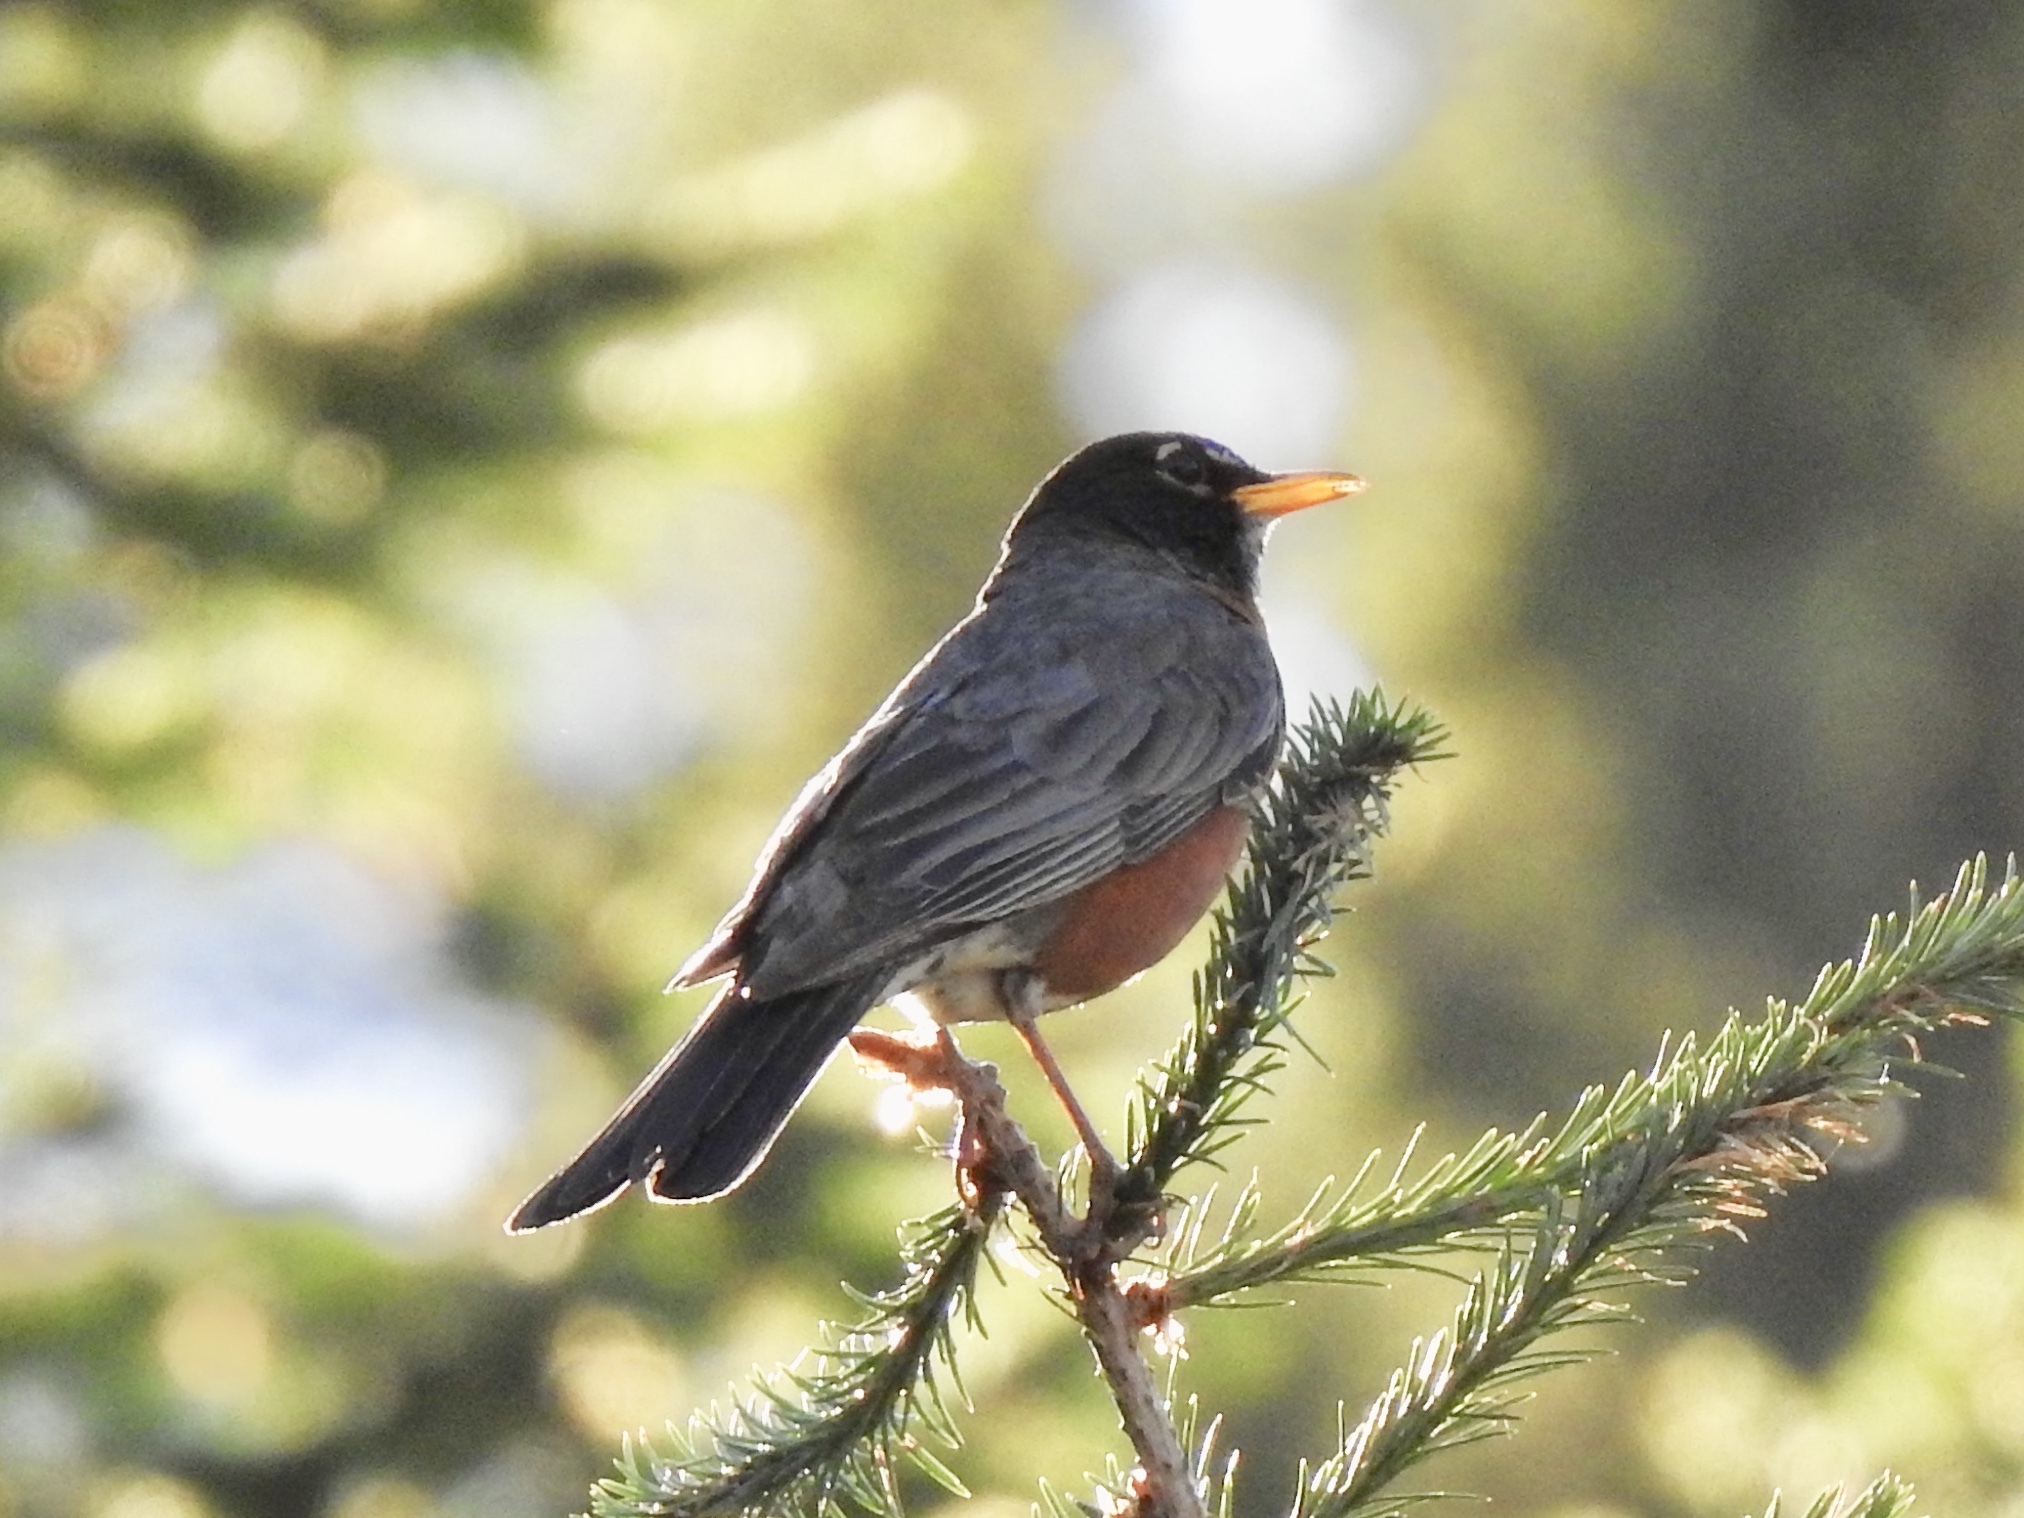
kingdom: Animalia
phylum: Chordata
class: Aves
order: Passeriformes
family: Turdidae
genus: Turdus
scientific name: Turdus migratorius
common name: American robin
